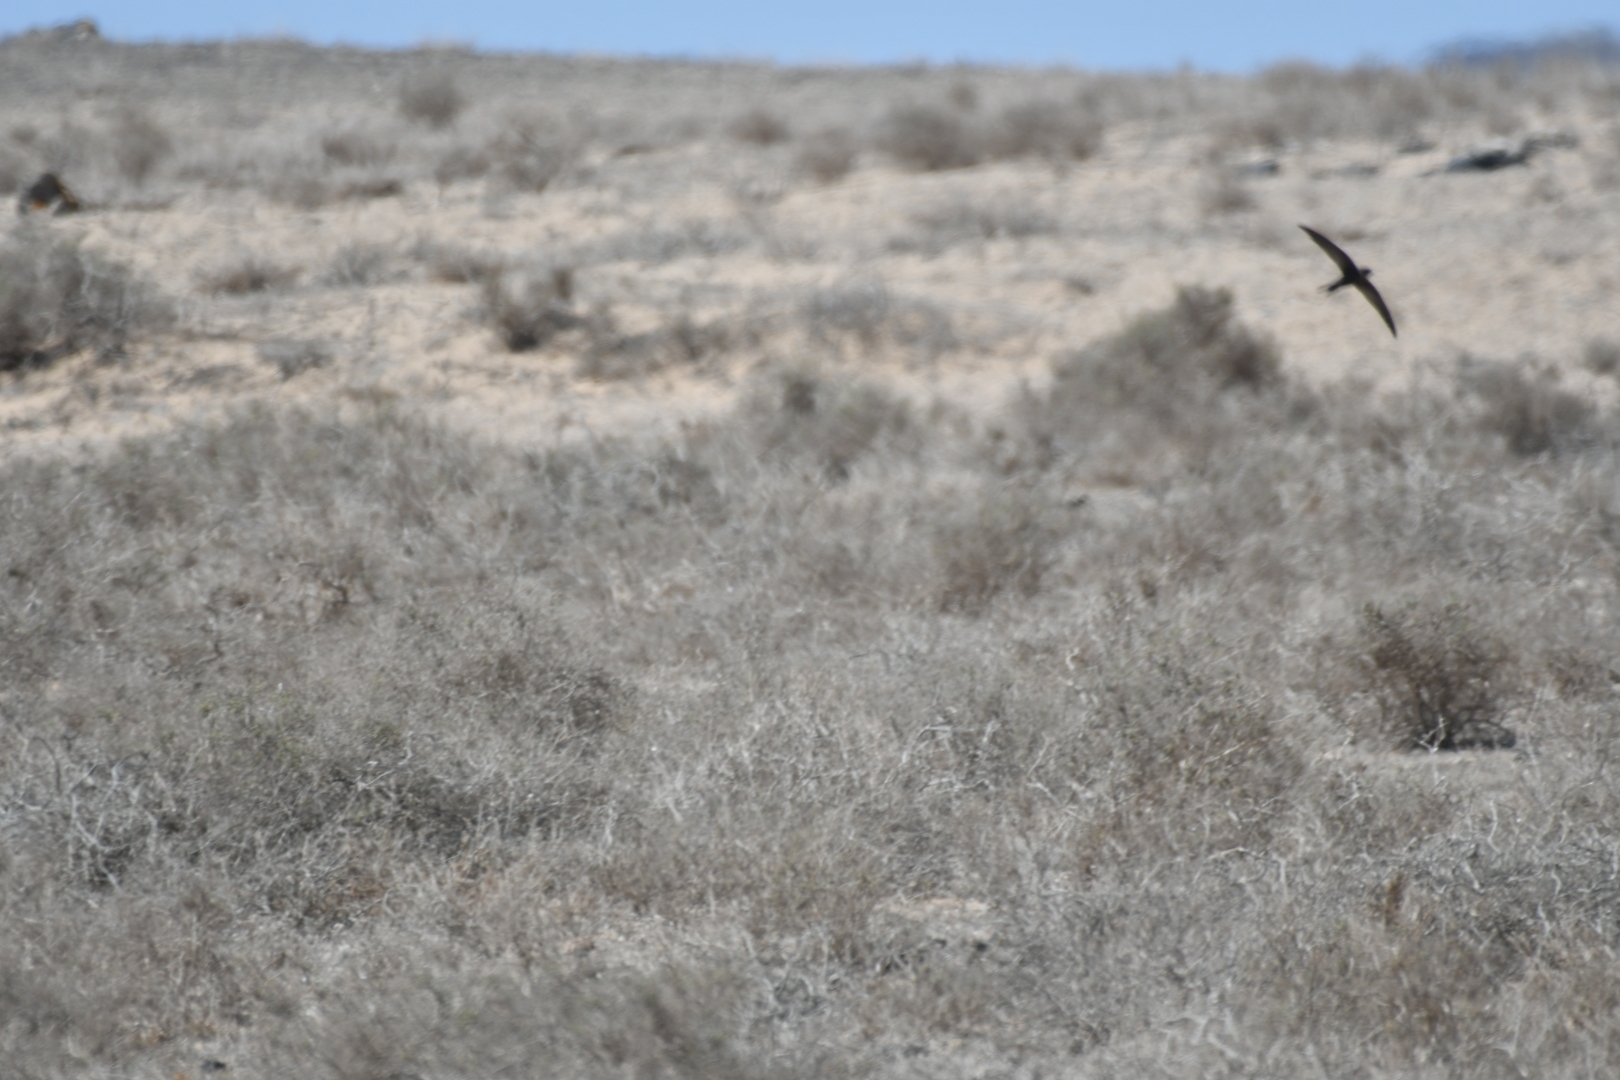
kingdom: Animalia
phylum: Chordata
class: Aves
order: Apodiformes
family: Apodidae
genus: Apus
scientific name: Apus unicolor
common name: Plain swift
